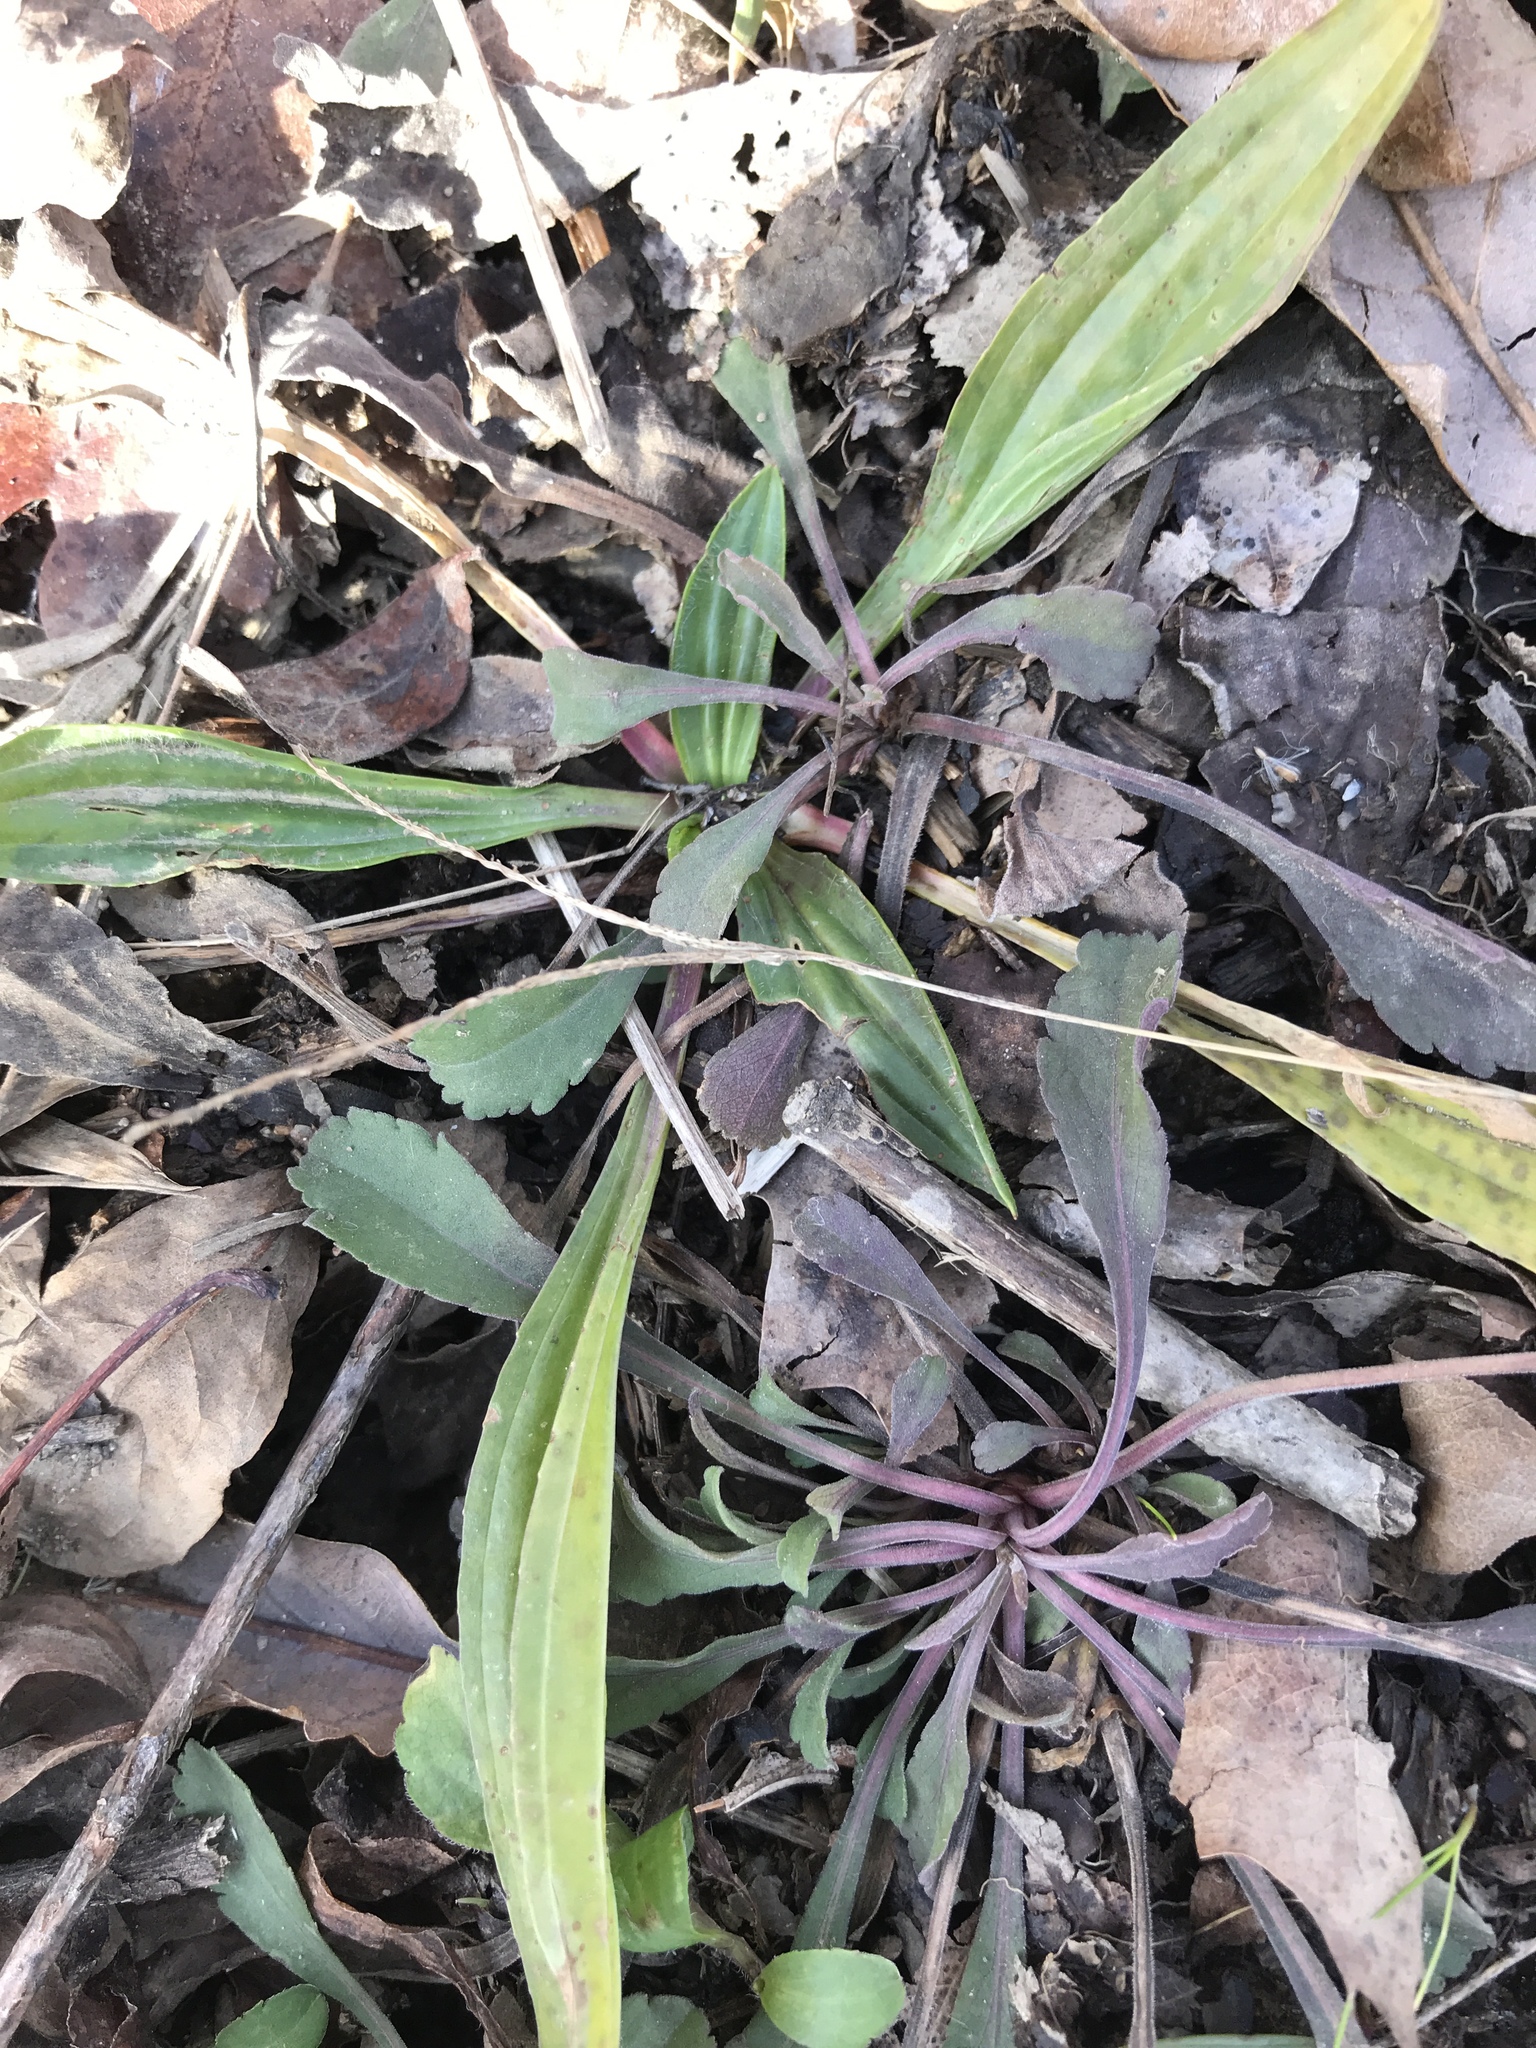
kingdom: Plantae
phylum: Tracheophyta
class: Magnoliopsida
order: Lamiales
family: Plantaginaceae
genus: Plantago
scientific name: Plantago lanceolata
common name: Ribwort plantain
